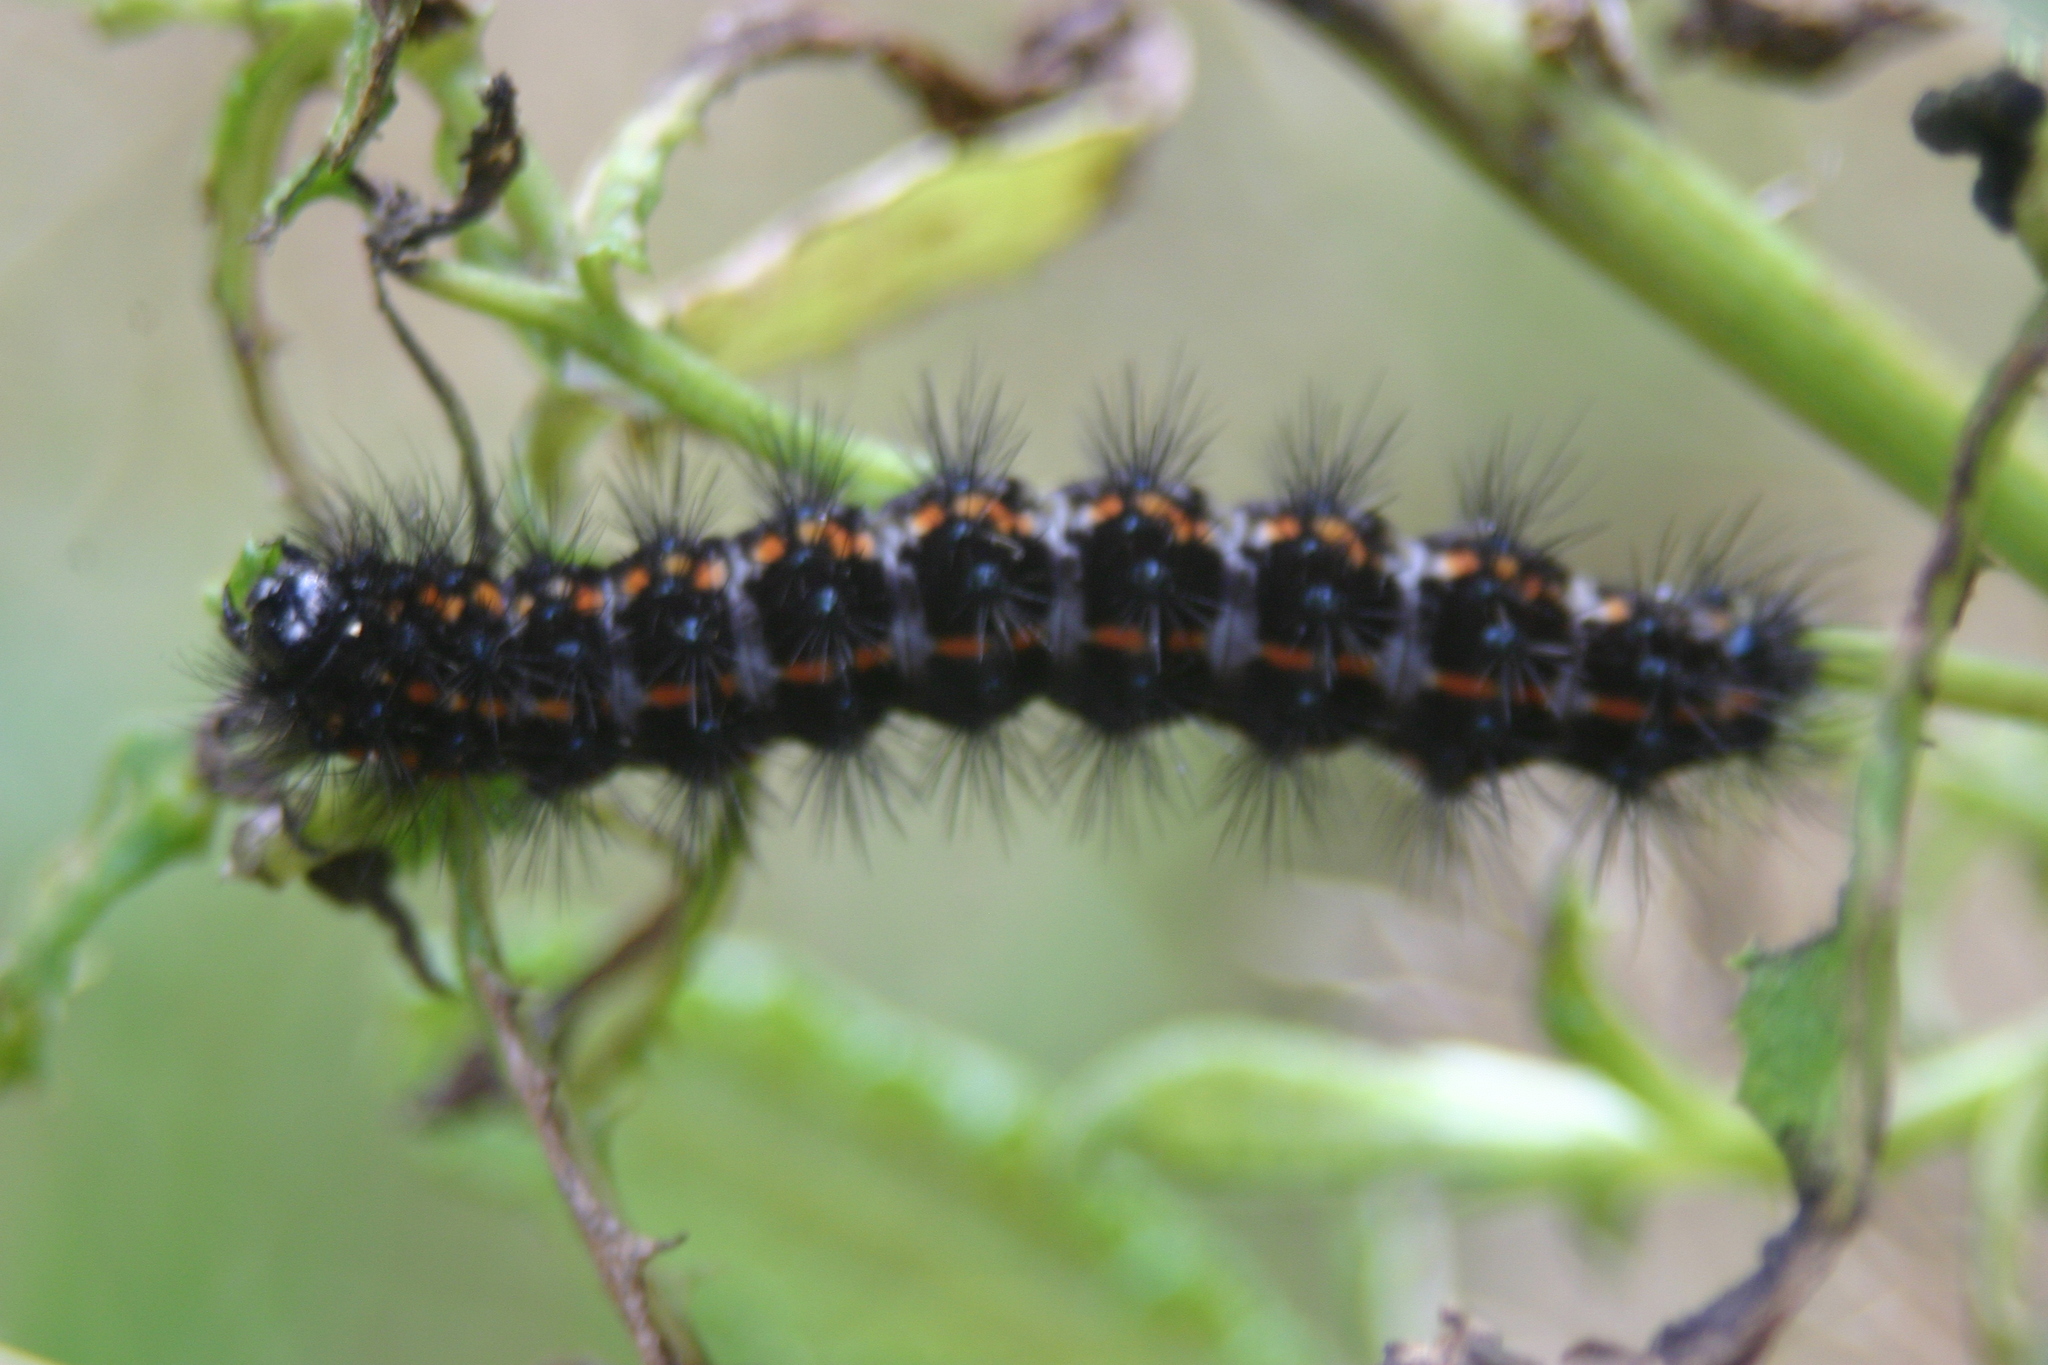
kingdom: Animalia
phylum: Arthropoda
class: Insecta
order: Lepidoptera
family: Erebidae
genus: Nyctemera
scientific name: Nyctemera annulatum
